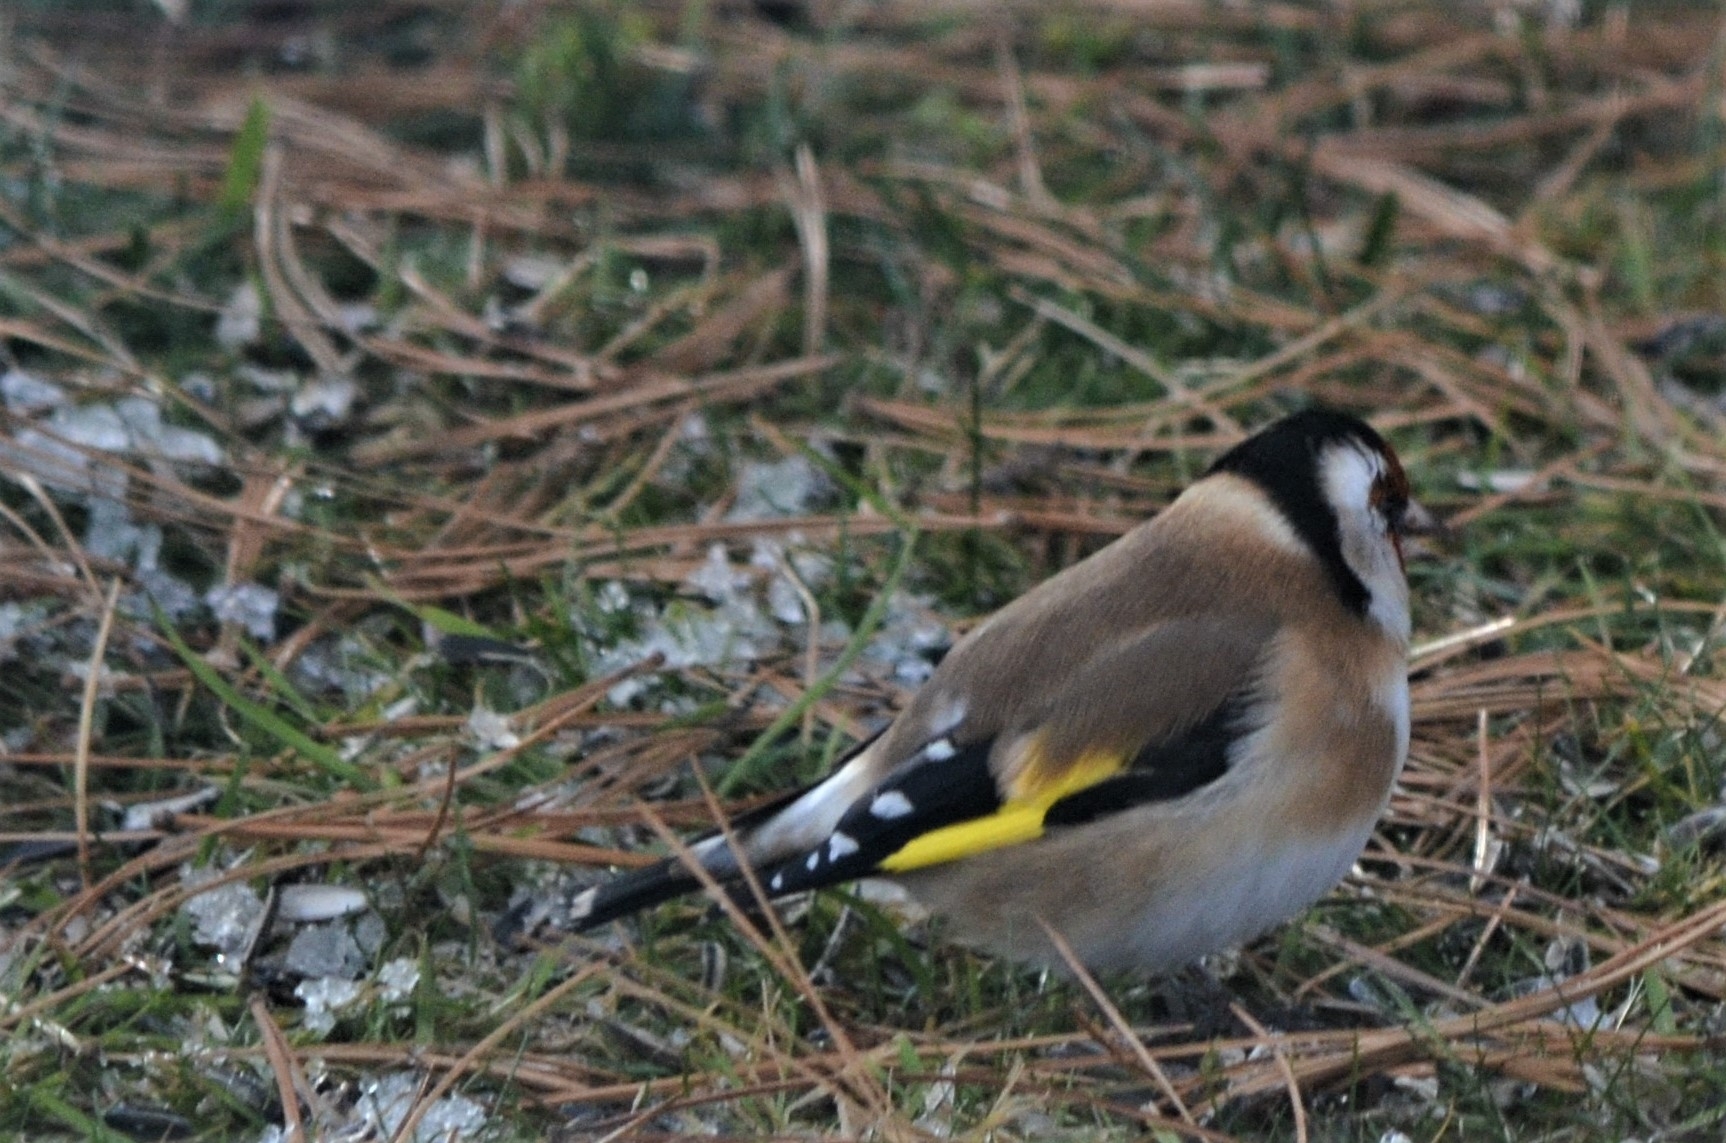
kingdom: Animalia
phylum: Chordata
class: Aves
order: Passeriformes
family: Fringillidae
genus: Carduelis
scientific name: Carduelis carduelis
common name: European goldfinch
